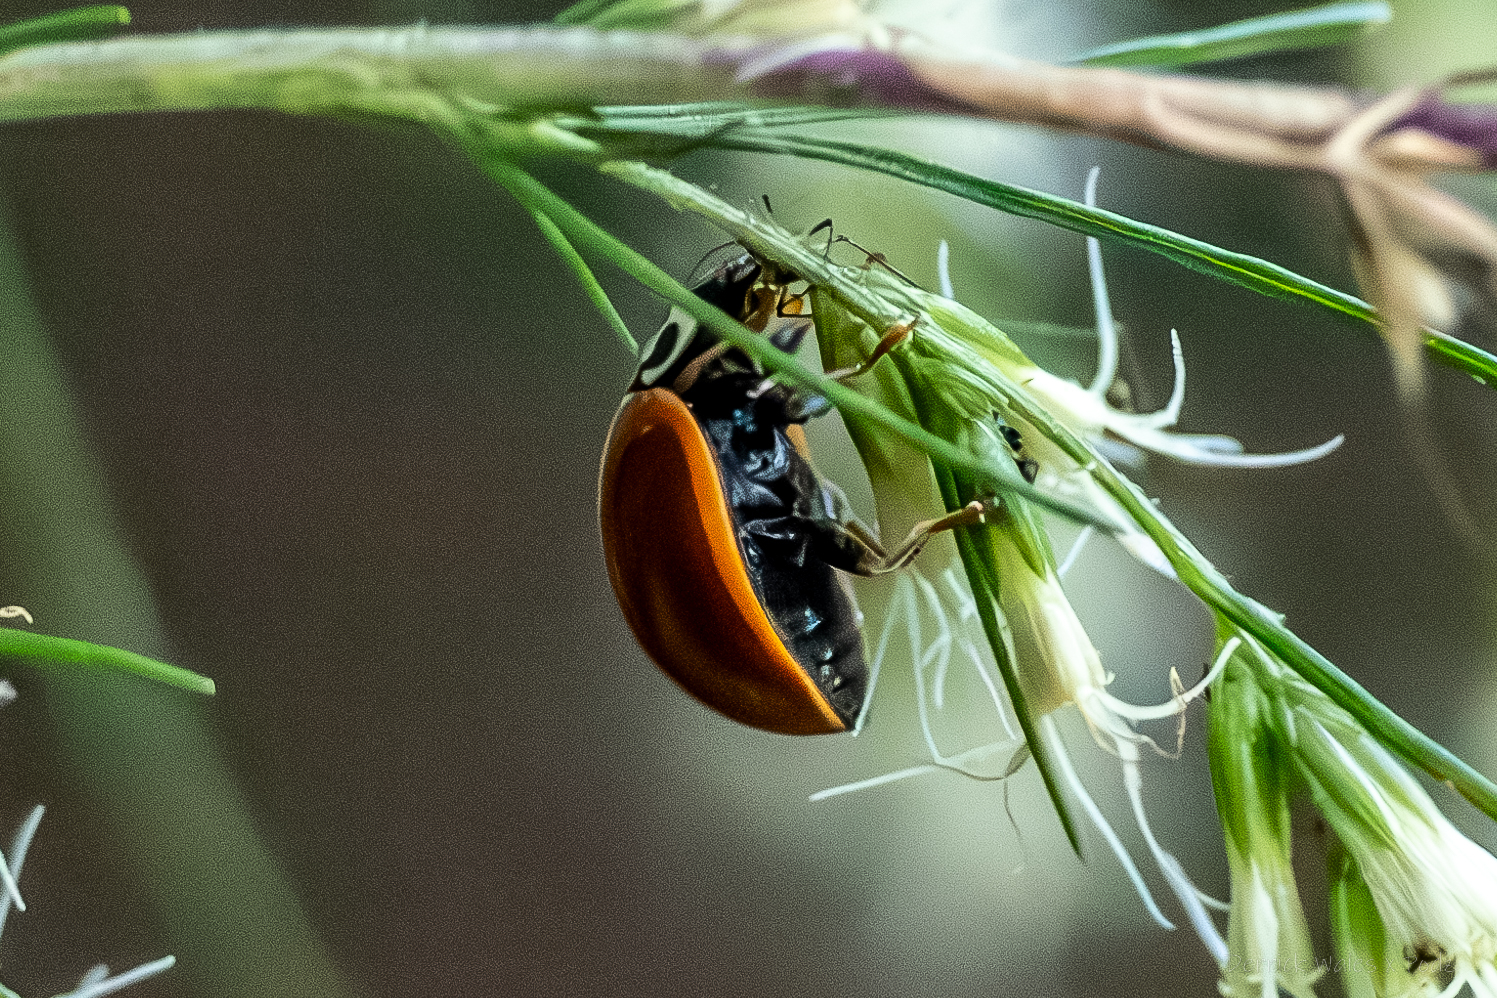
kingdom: Animalia
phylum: Arthropoda
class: Insecta
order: Coleoptera
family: Coccinellidae
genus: Cycloneda
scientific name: Cycloneda munda
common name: Polished lady beetle
